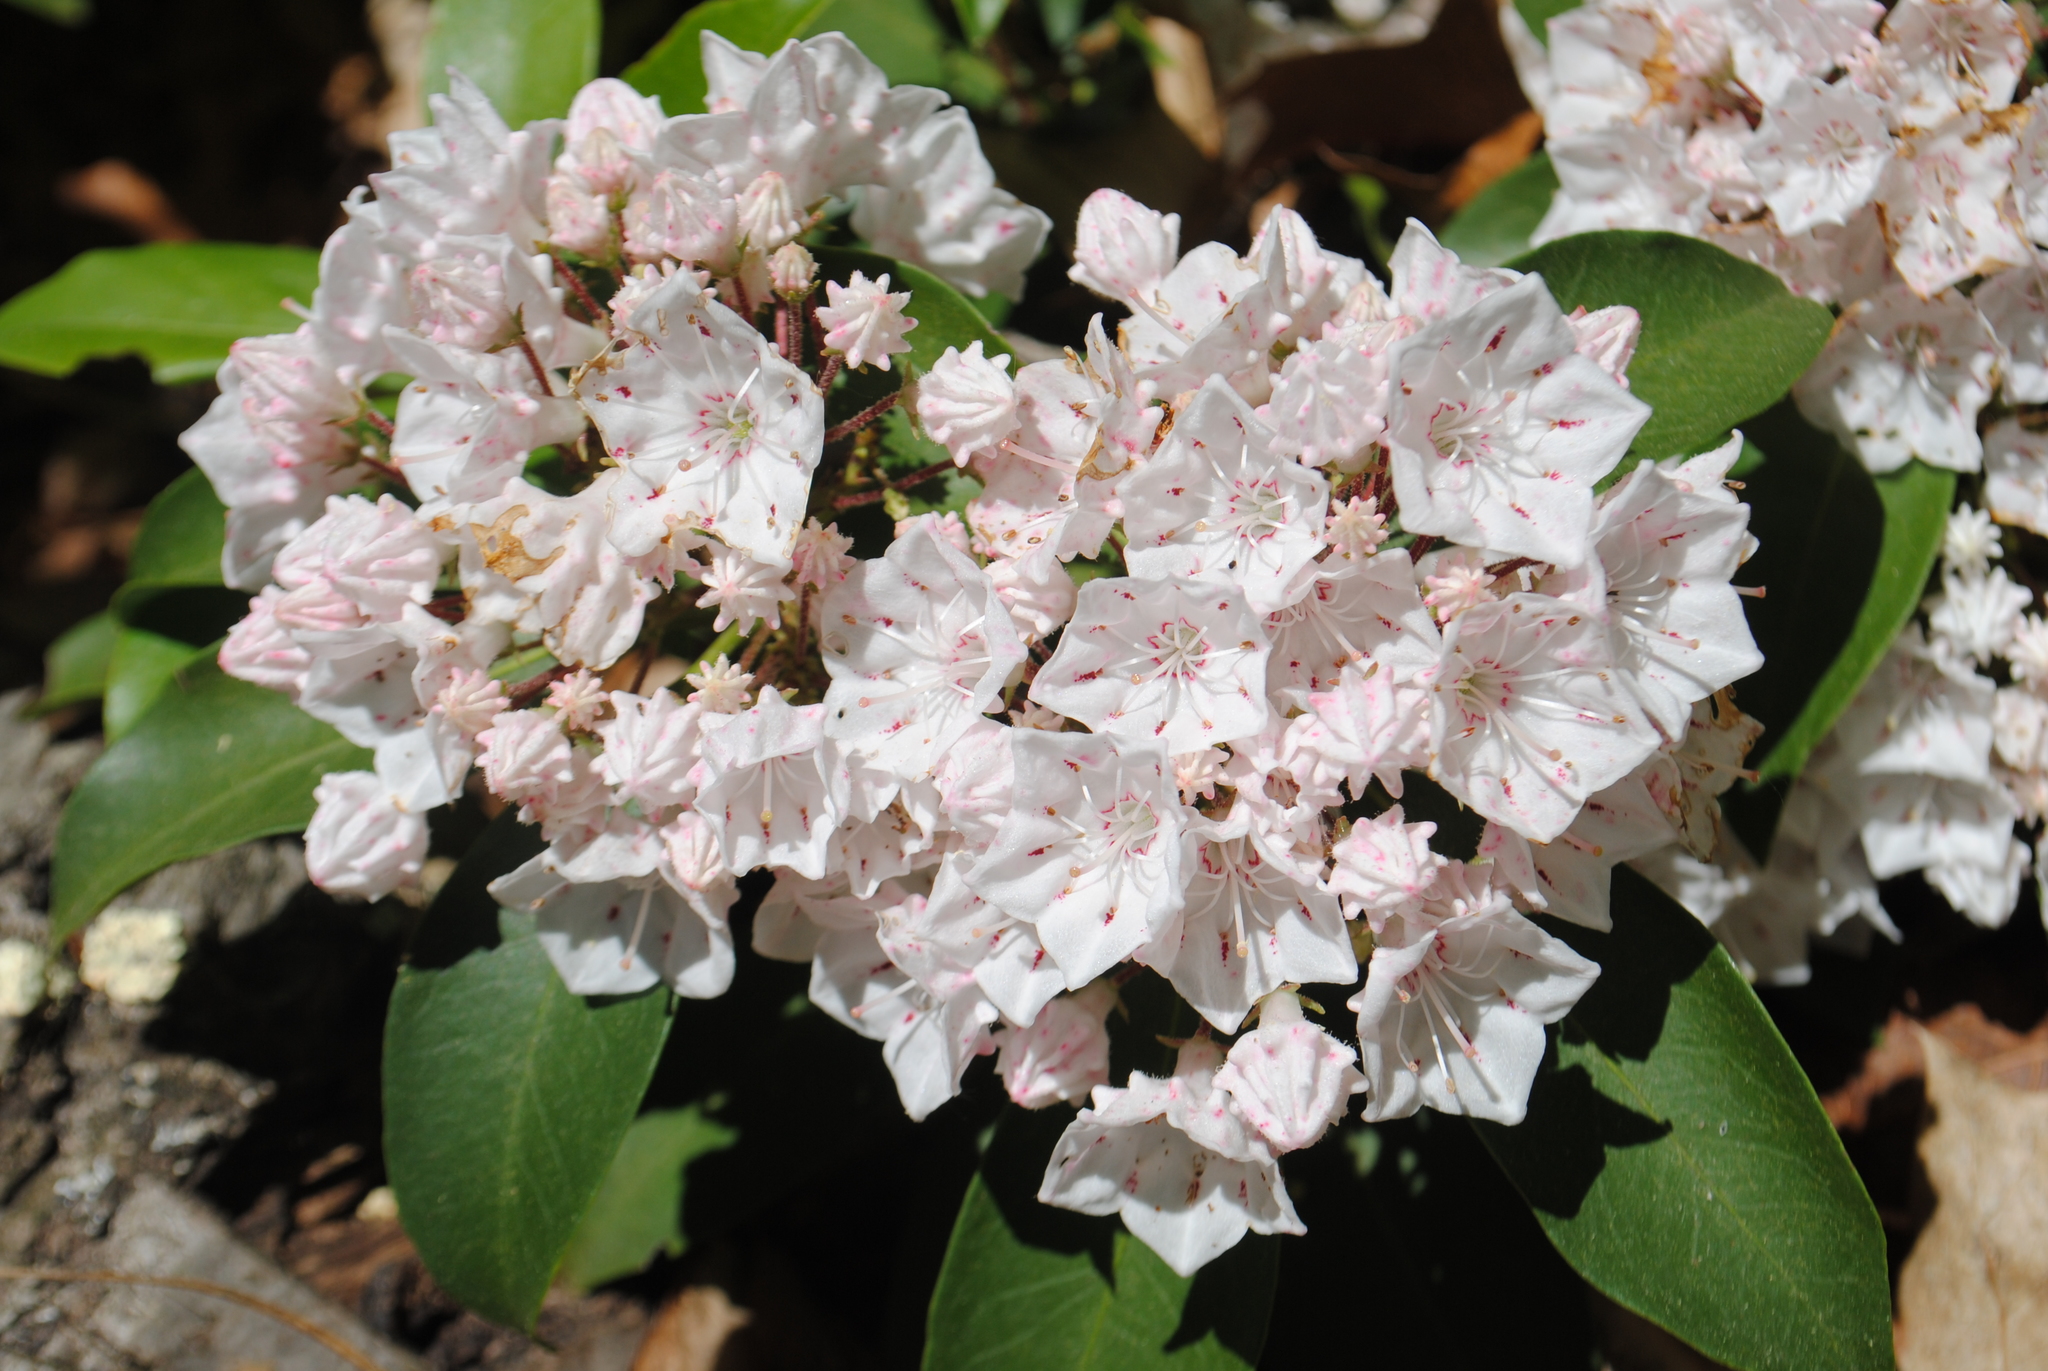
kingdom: Plantae
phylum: Tracheophyta
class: Magnoliopsida
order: Ericales
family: Ericaceae
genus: Kalmia
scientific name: Kalmia latifolia
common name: Mountain-laurel
